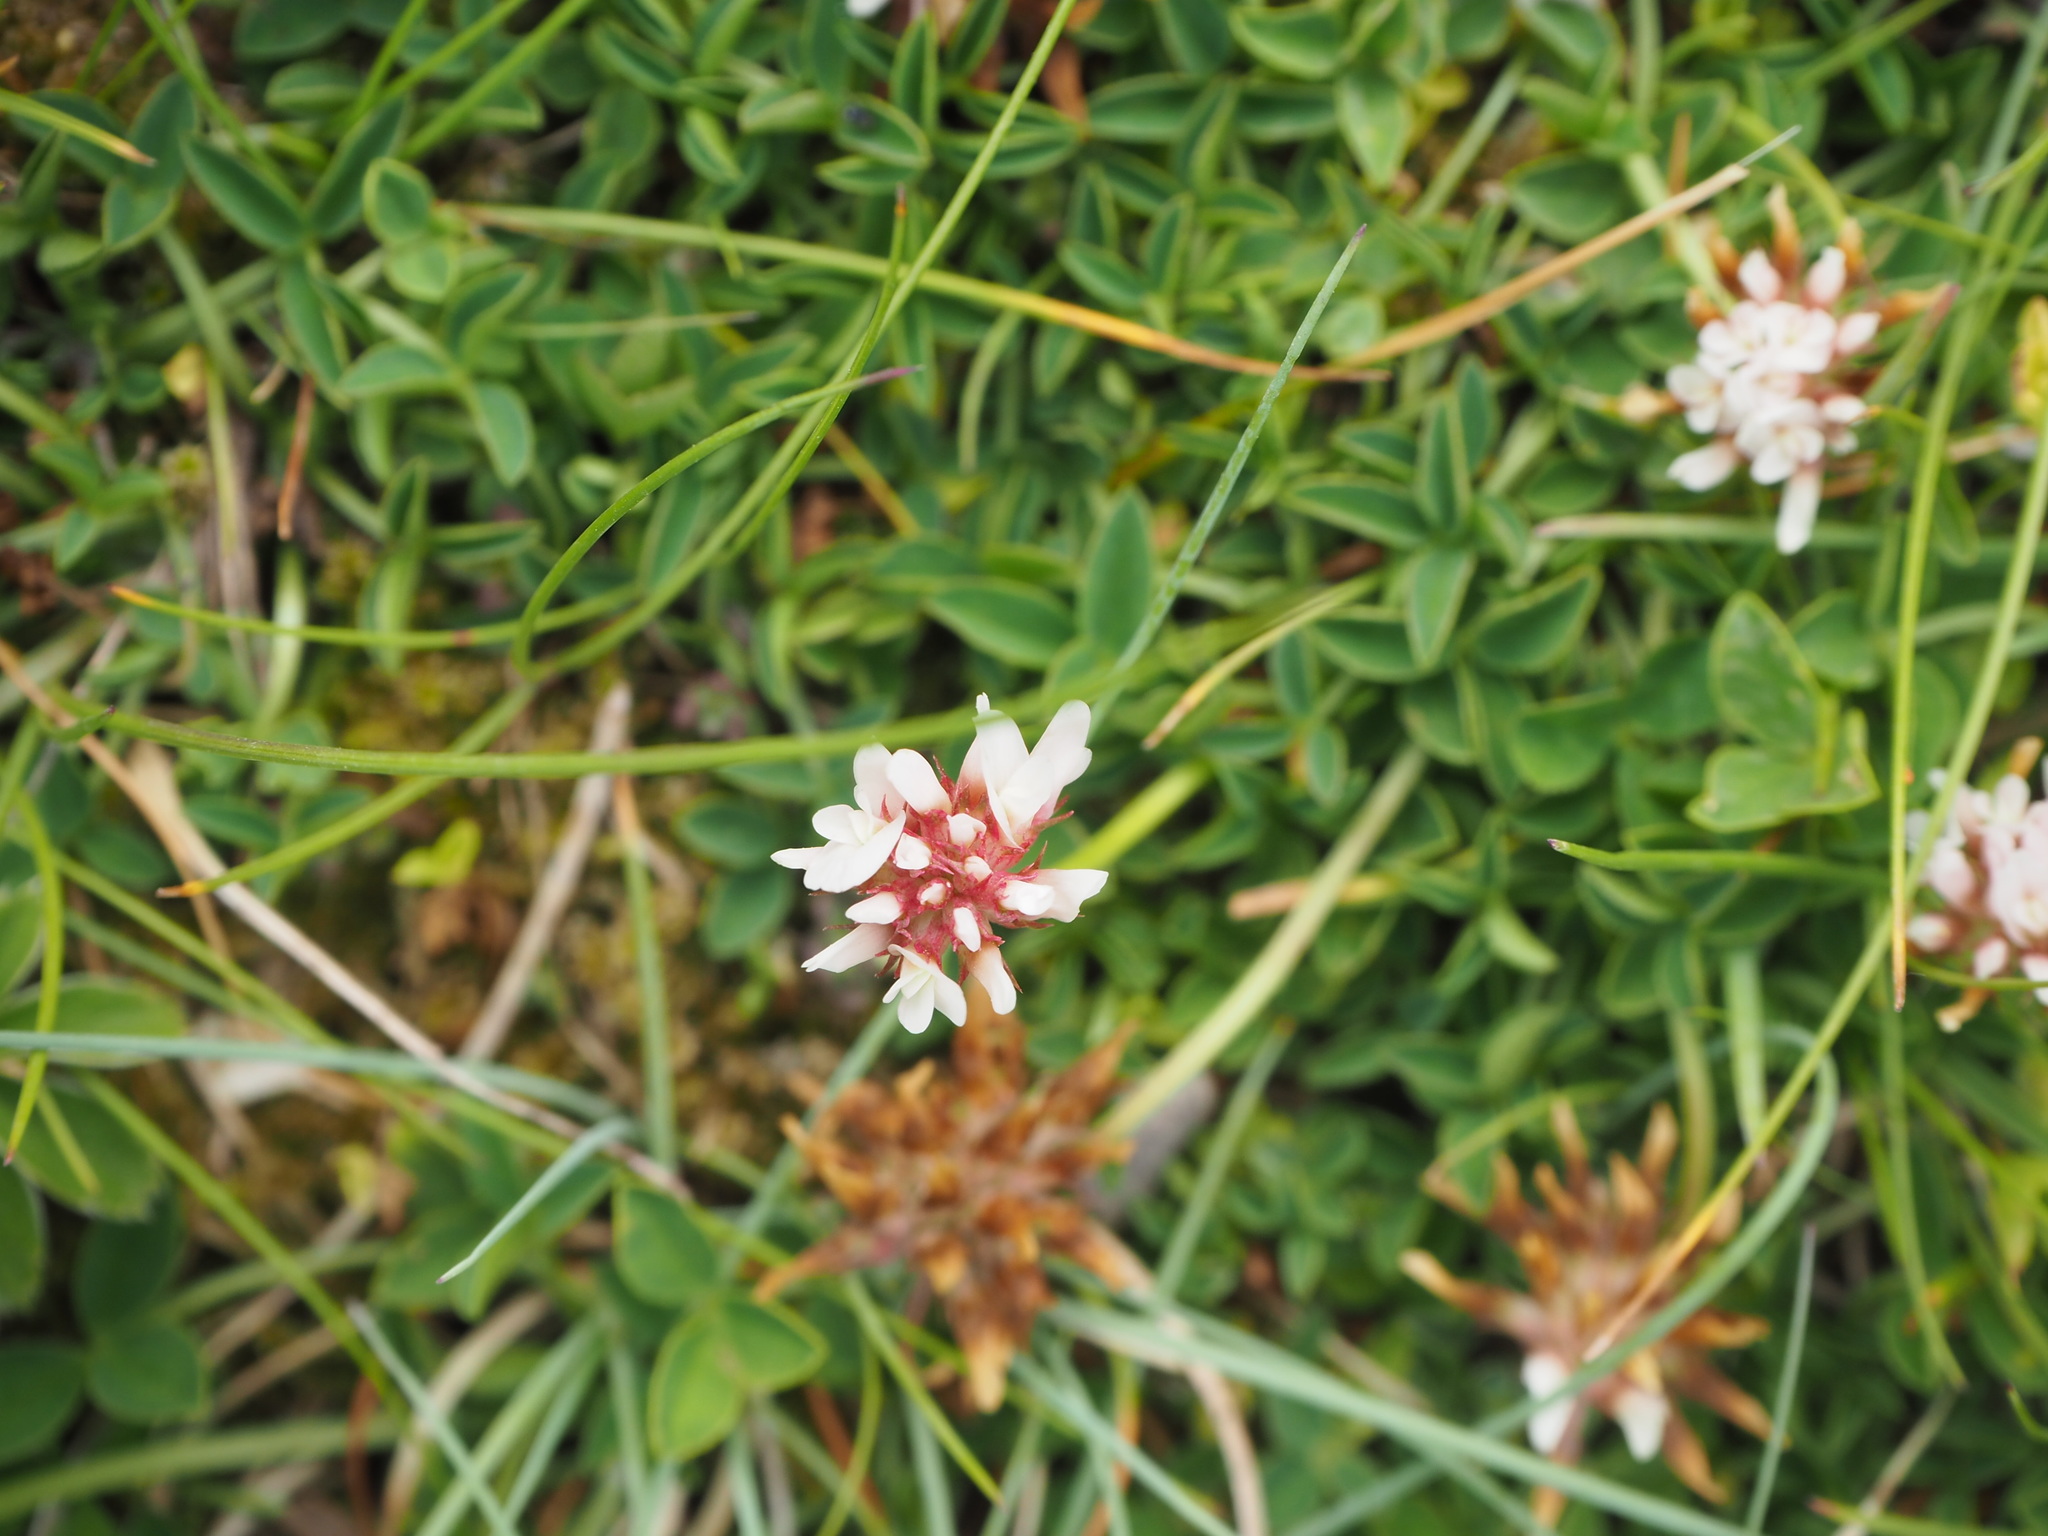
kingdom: Plantae
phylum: Tracheophyta
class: Magnoliopsida
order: Fabales
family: Fabaceae
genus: Trifolium
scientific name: Trifolium thalii
